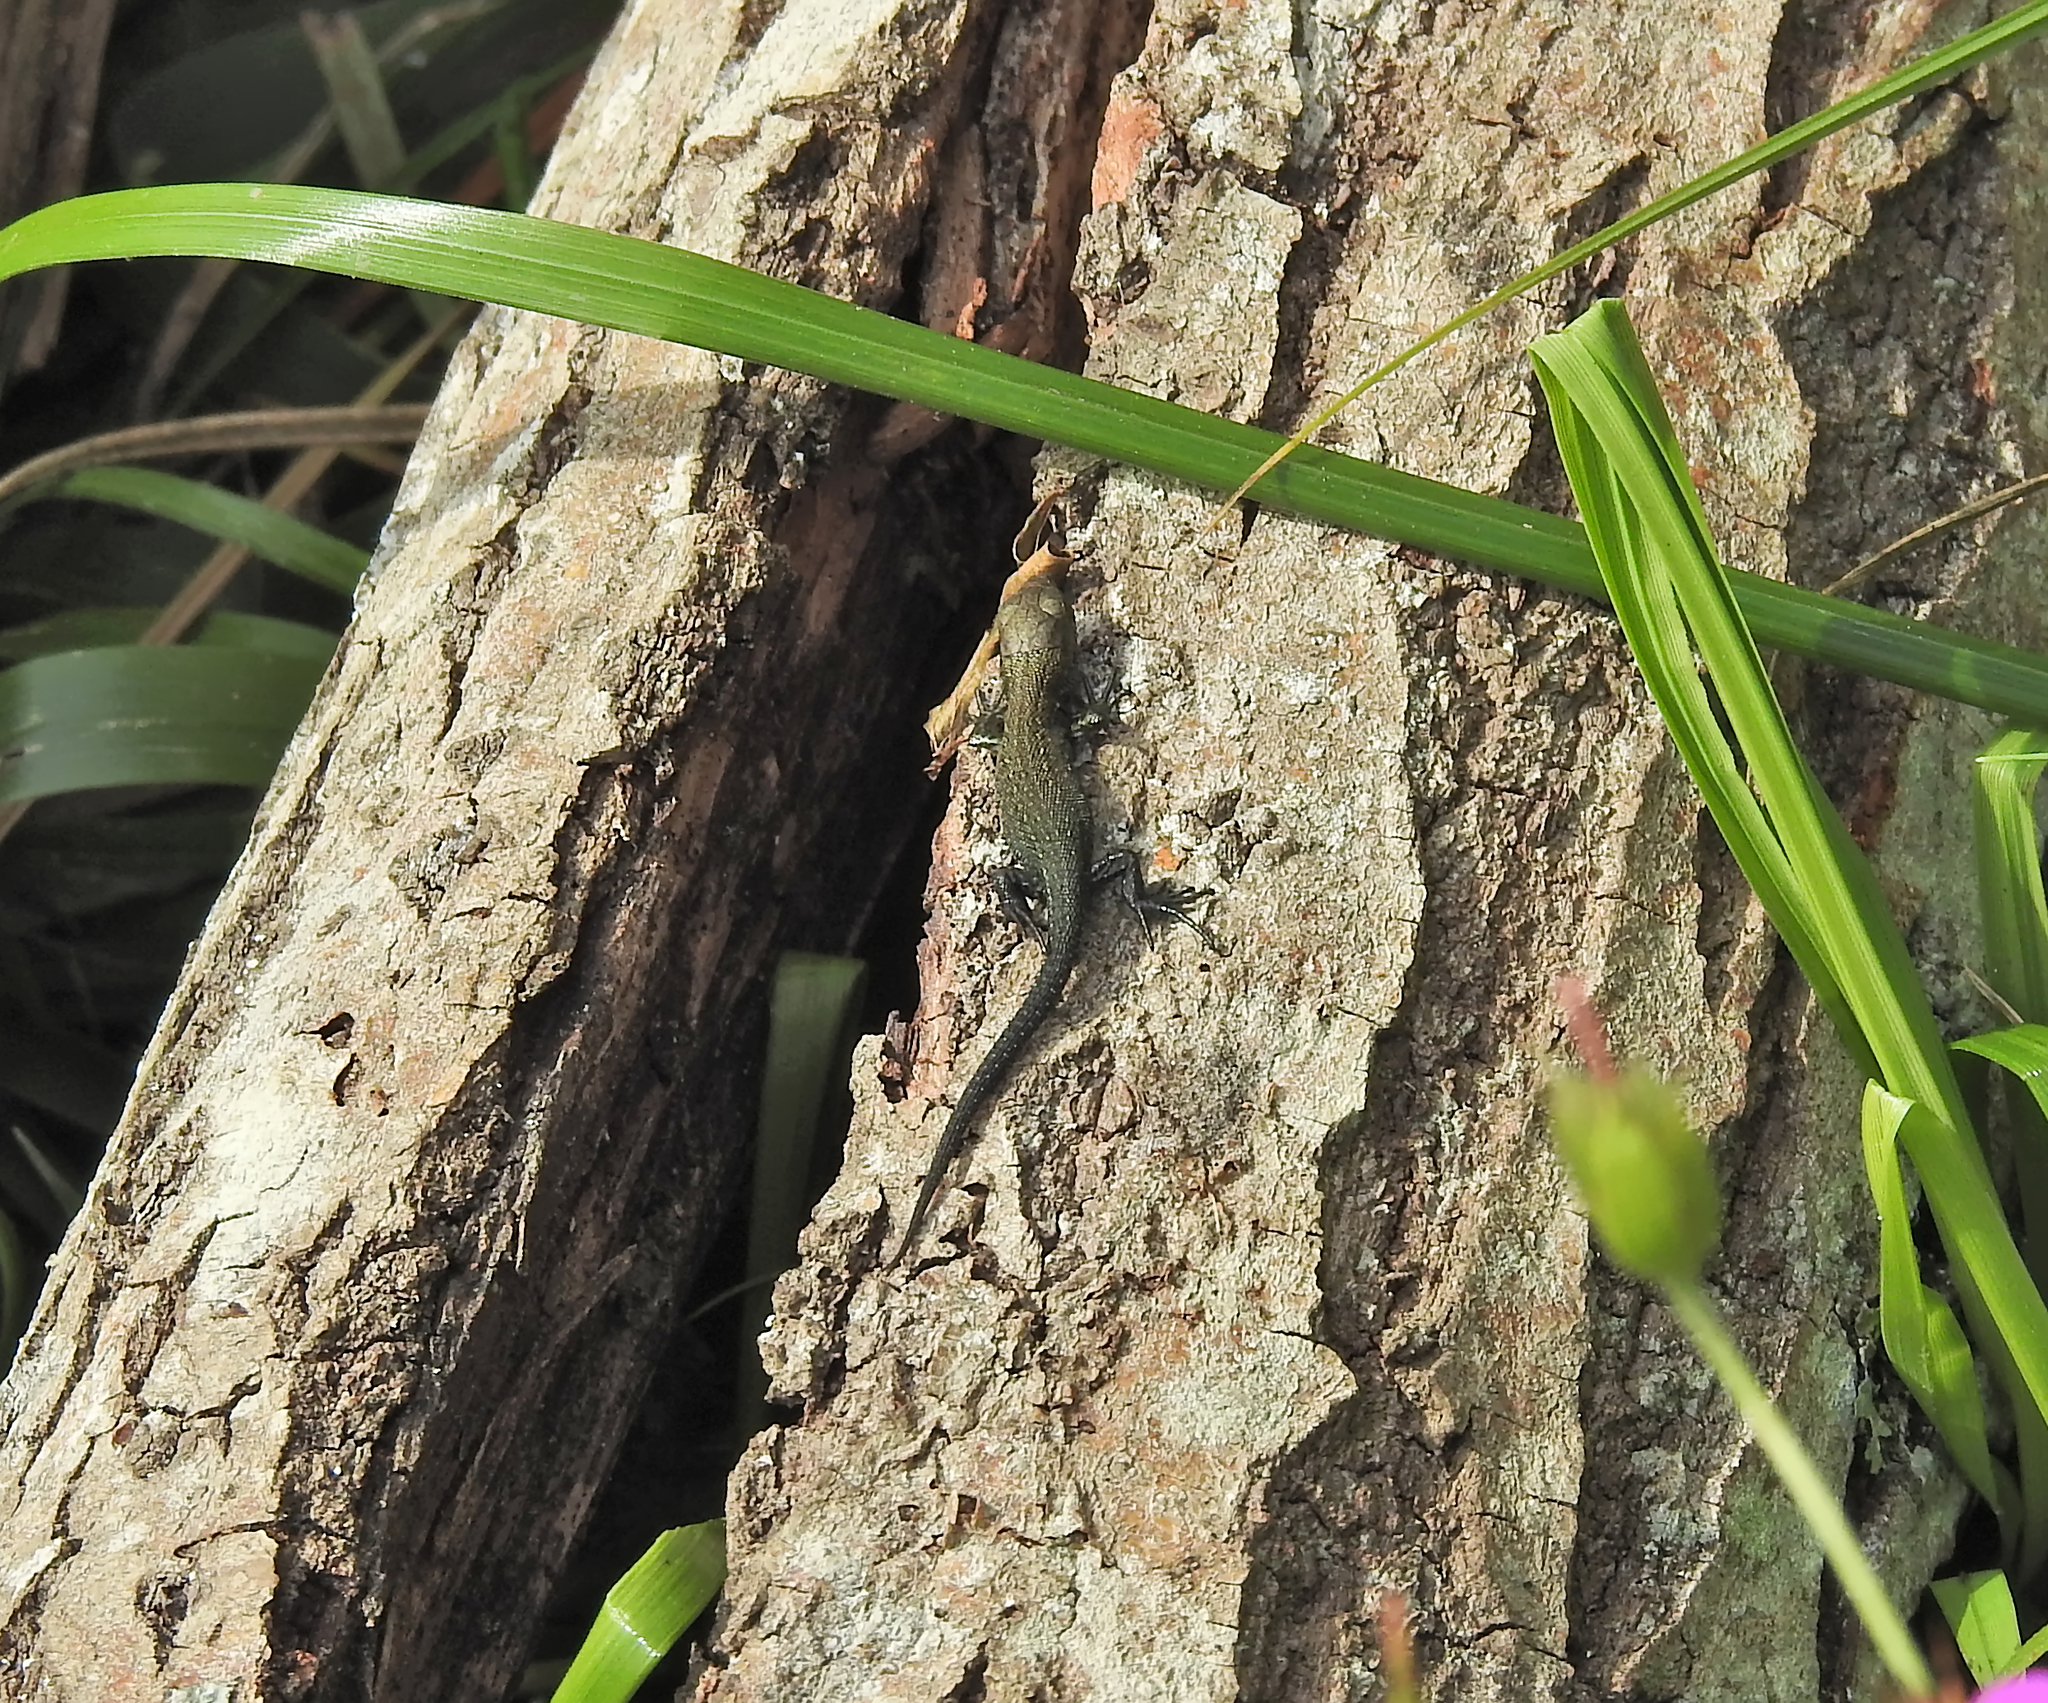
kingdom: Animalia
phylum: Chordata
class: Squamata
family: Lacertidae
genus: Zootoca
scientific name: Zootoca vivipara
